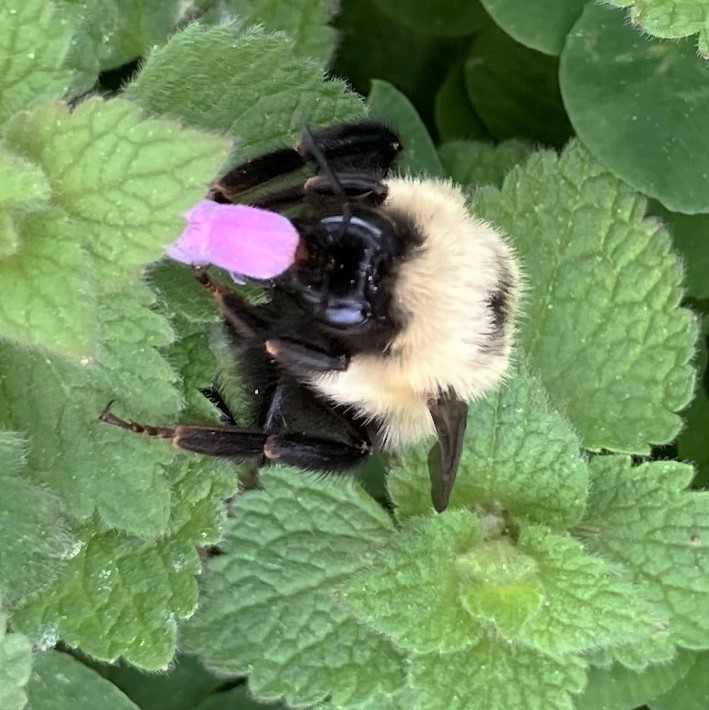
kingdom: Animalia
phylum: Arthropoda
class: Insecta
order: Hymenoptera
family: Apidae
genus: Bombus
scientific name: Bombus bimaculatus
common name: Two-spotted bumble bee
